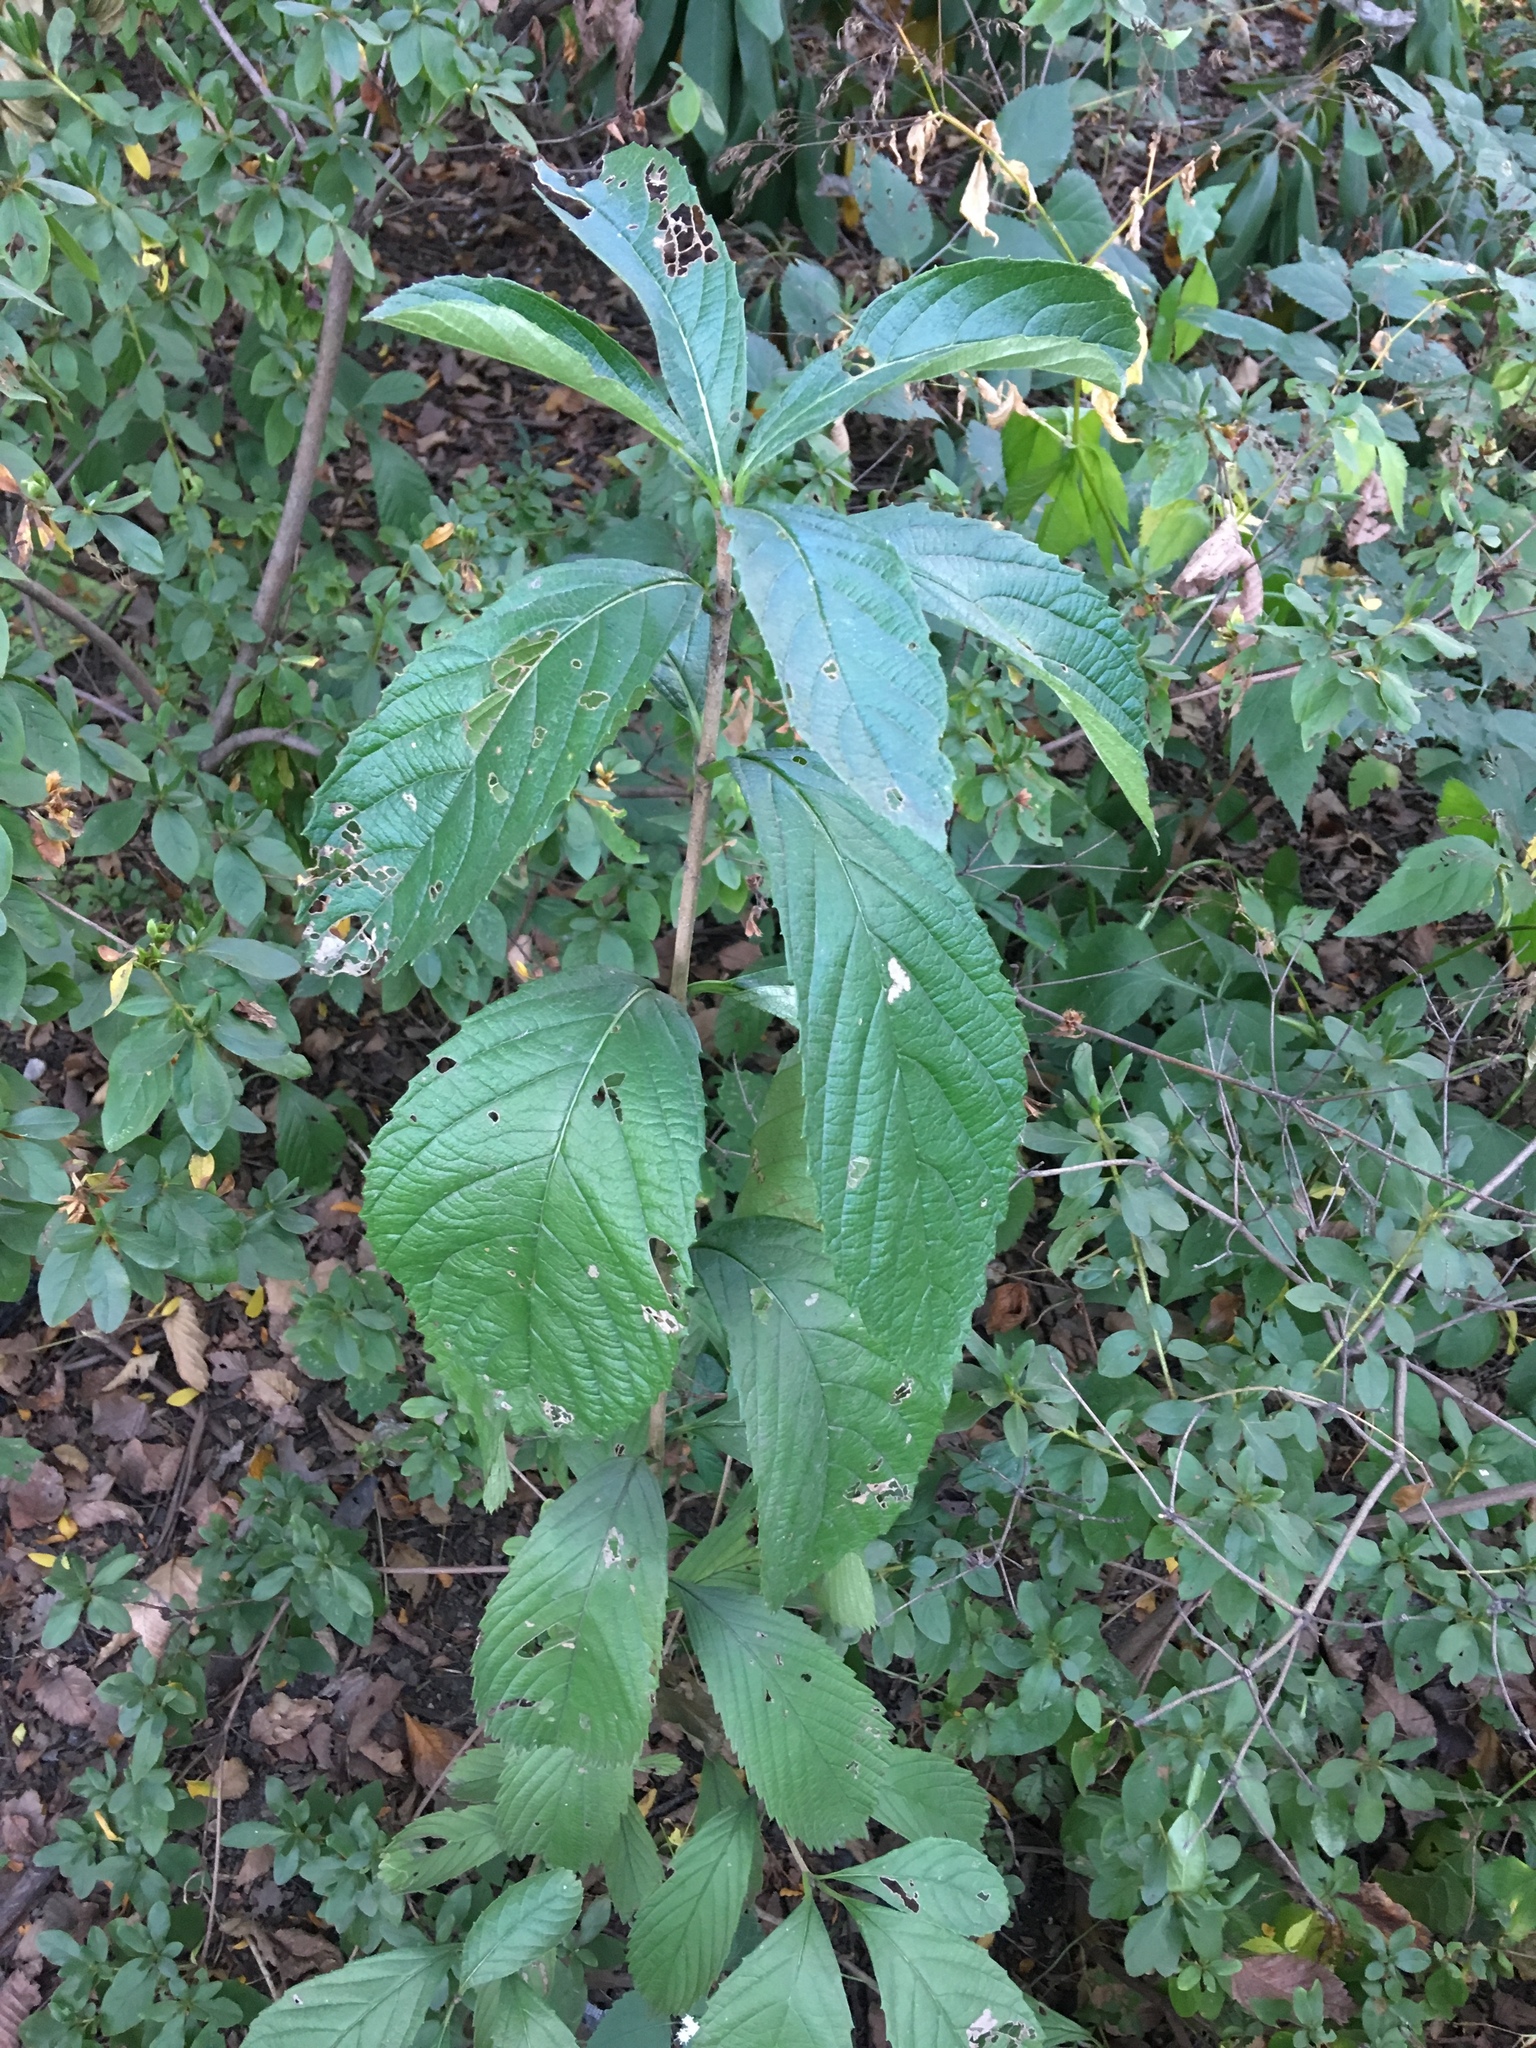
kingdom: Plantae
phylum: Tracheophyta
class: Magnoliopsida
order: Dipsacales
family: Viburnaceae
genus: Viburnum
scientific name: Viburnum sieboldii
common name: Siebold's arrowwood
